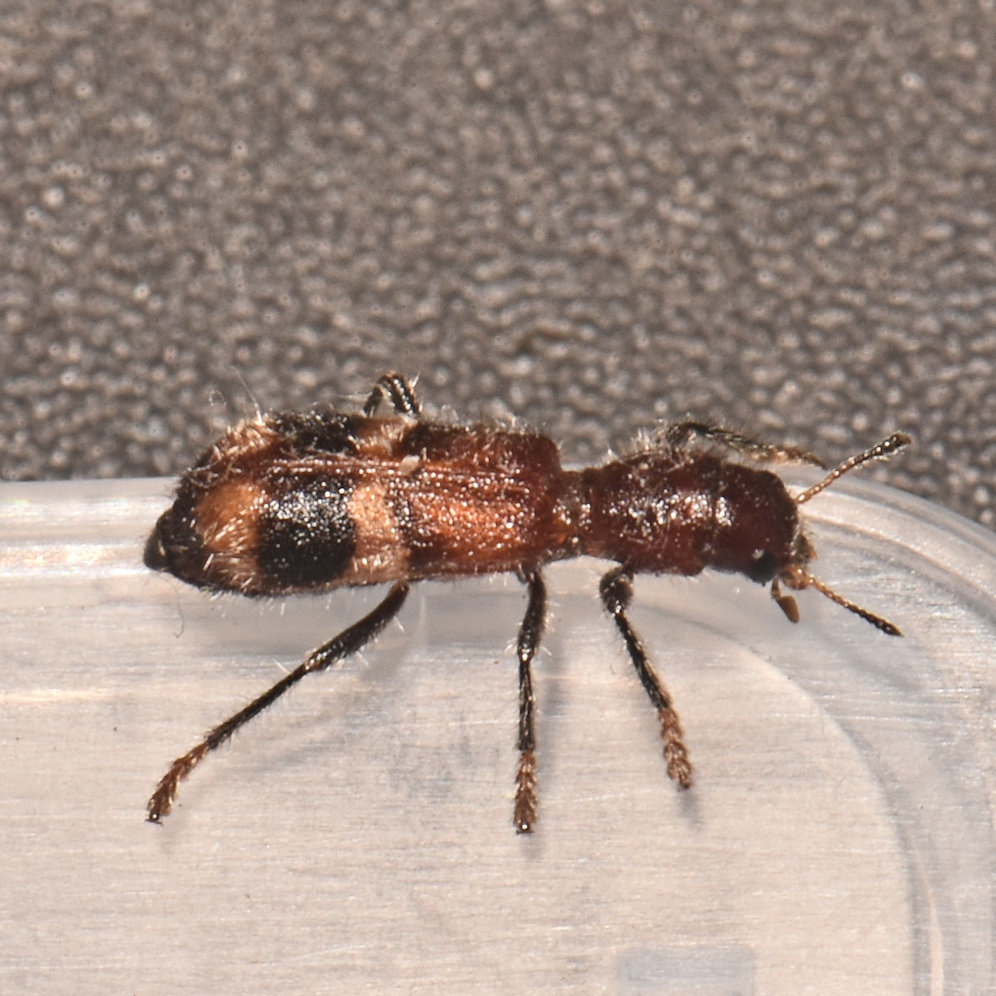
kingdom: Animalia
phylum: Arthropoda
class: Insecta
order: Coleoptera
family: Cleridae
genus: Enoclerus
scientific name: Enoclerus rosmarus
